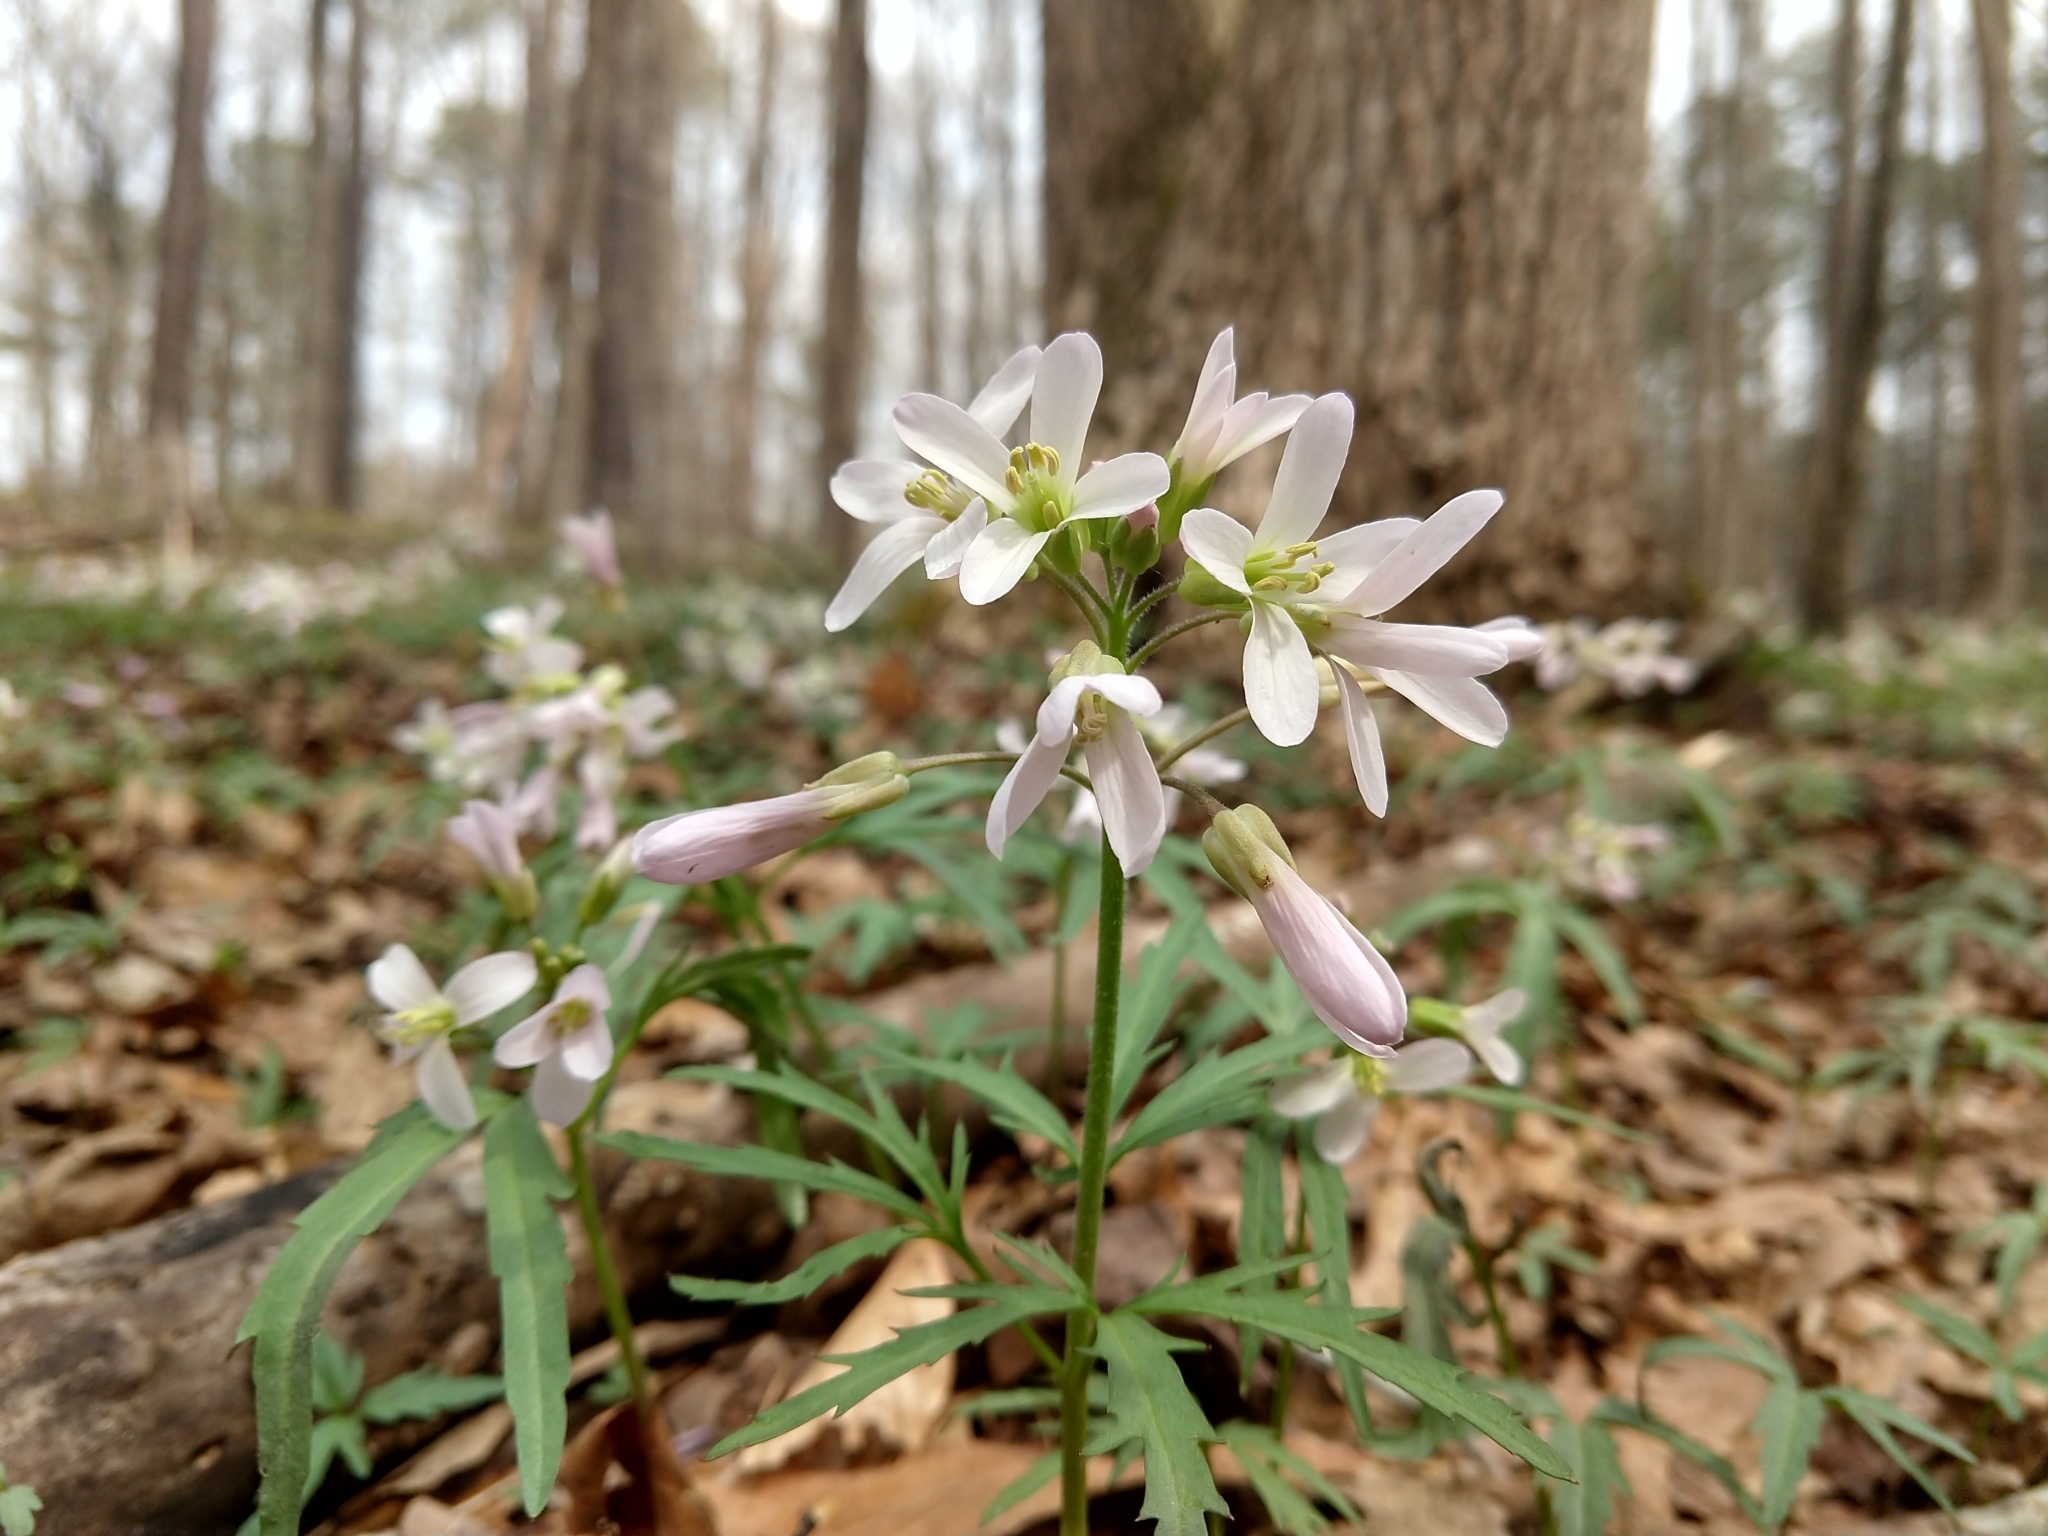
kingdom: Plantae
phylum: Tracheophyta
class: Magnoliopsida
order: Brassicales
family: Brassicaceae
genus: Cardamine
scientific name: Cardamine concatenata
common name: Cut-leaf toothcup
